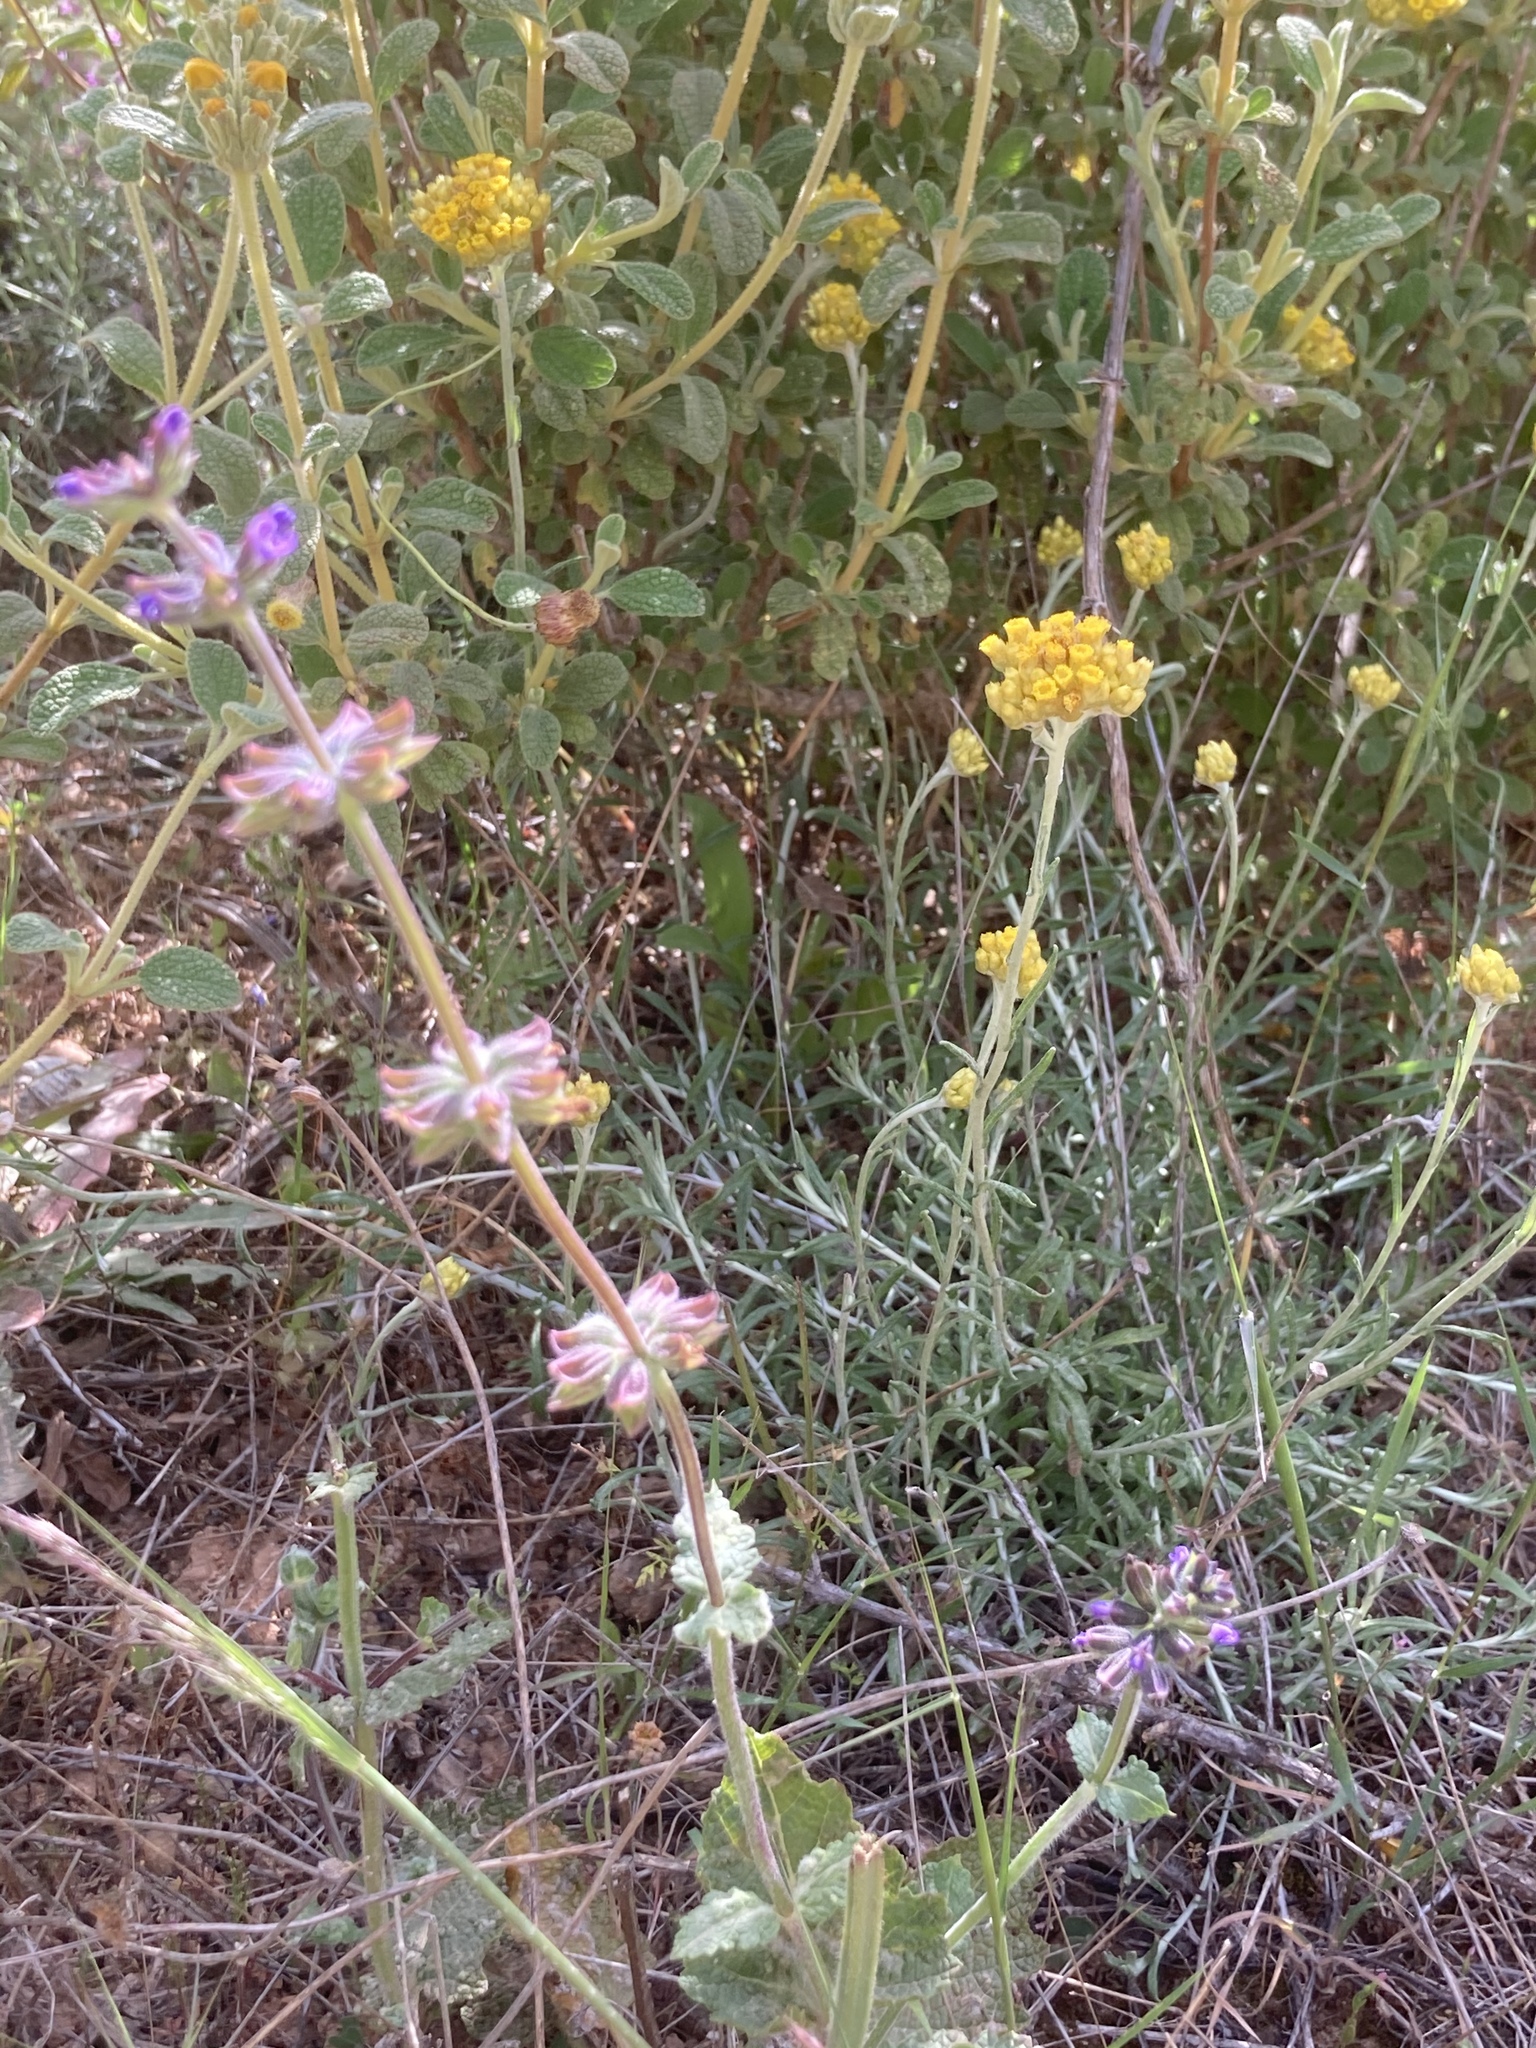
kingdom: Plantae
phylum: Tracheophyta
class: Magnoliopsida
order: Lamiales
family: Lamiaceae
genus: Salvia
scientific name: Salvia verbenaca
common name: Wild clary
